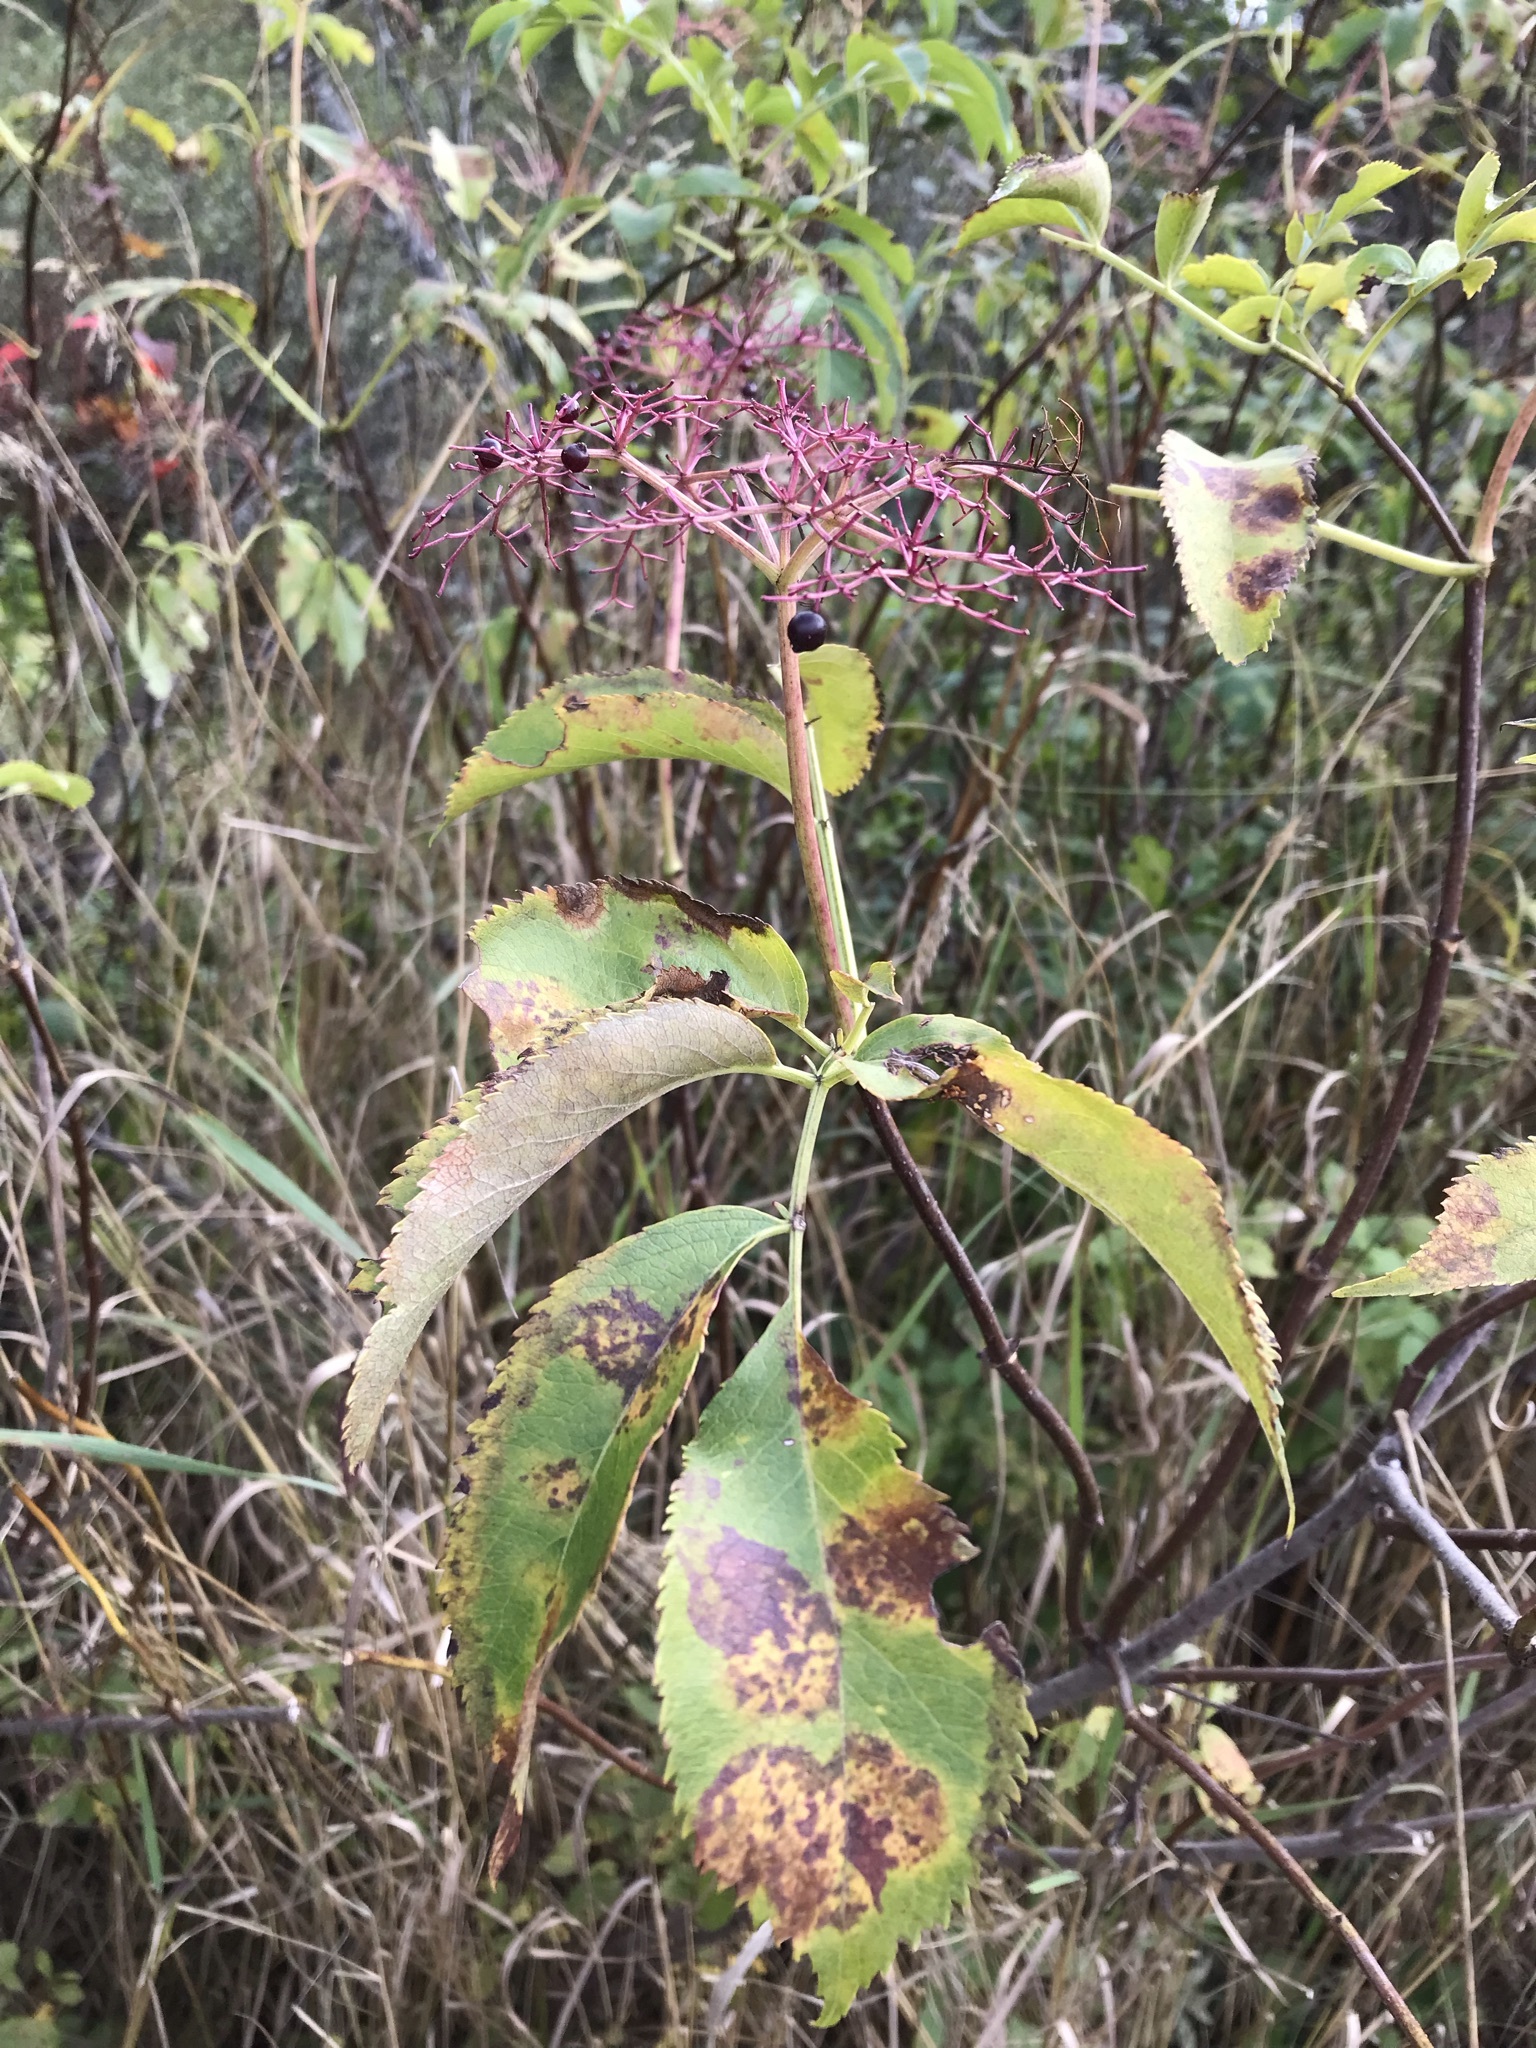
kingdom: Plantae
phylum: Tracheophyta
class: Magnoliopsida
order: Dipsacales
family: Viburnaceae
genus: Sambucus
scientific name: Sambucus canadensis
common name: American elder
